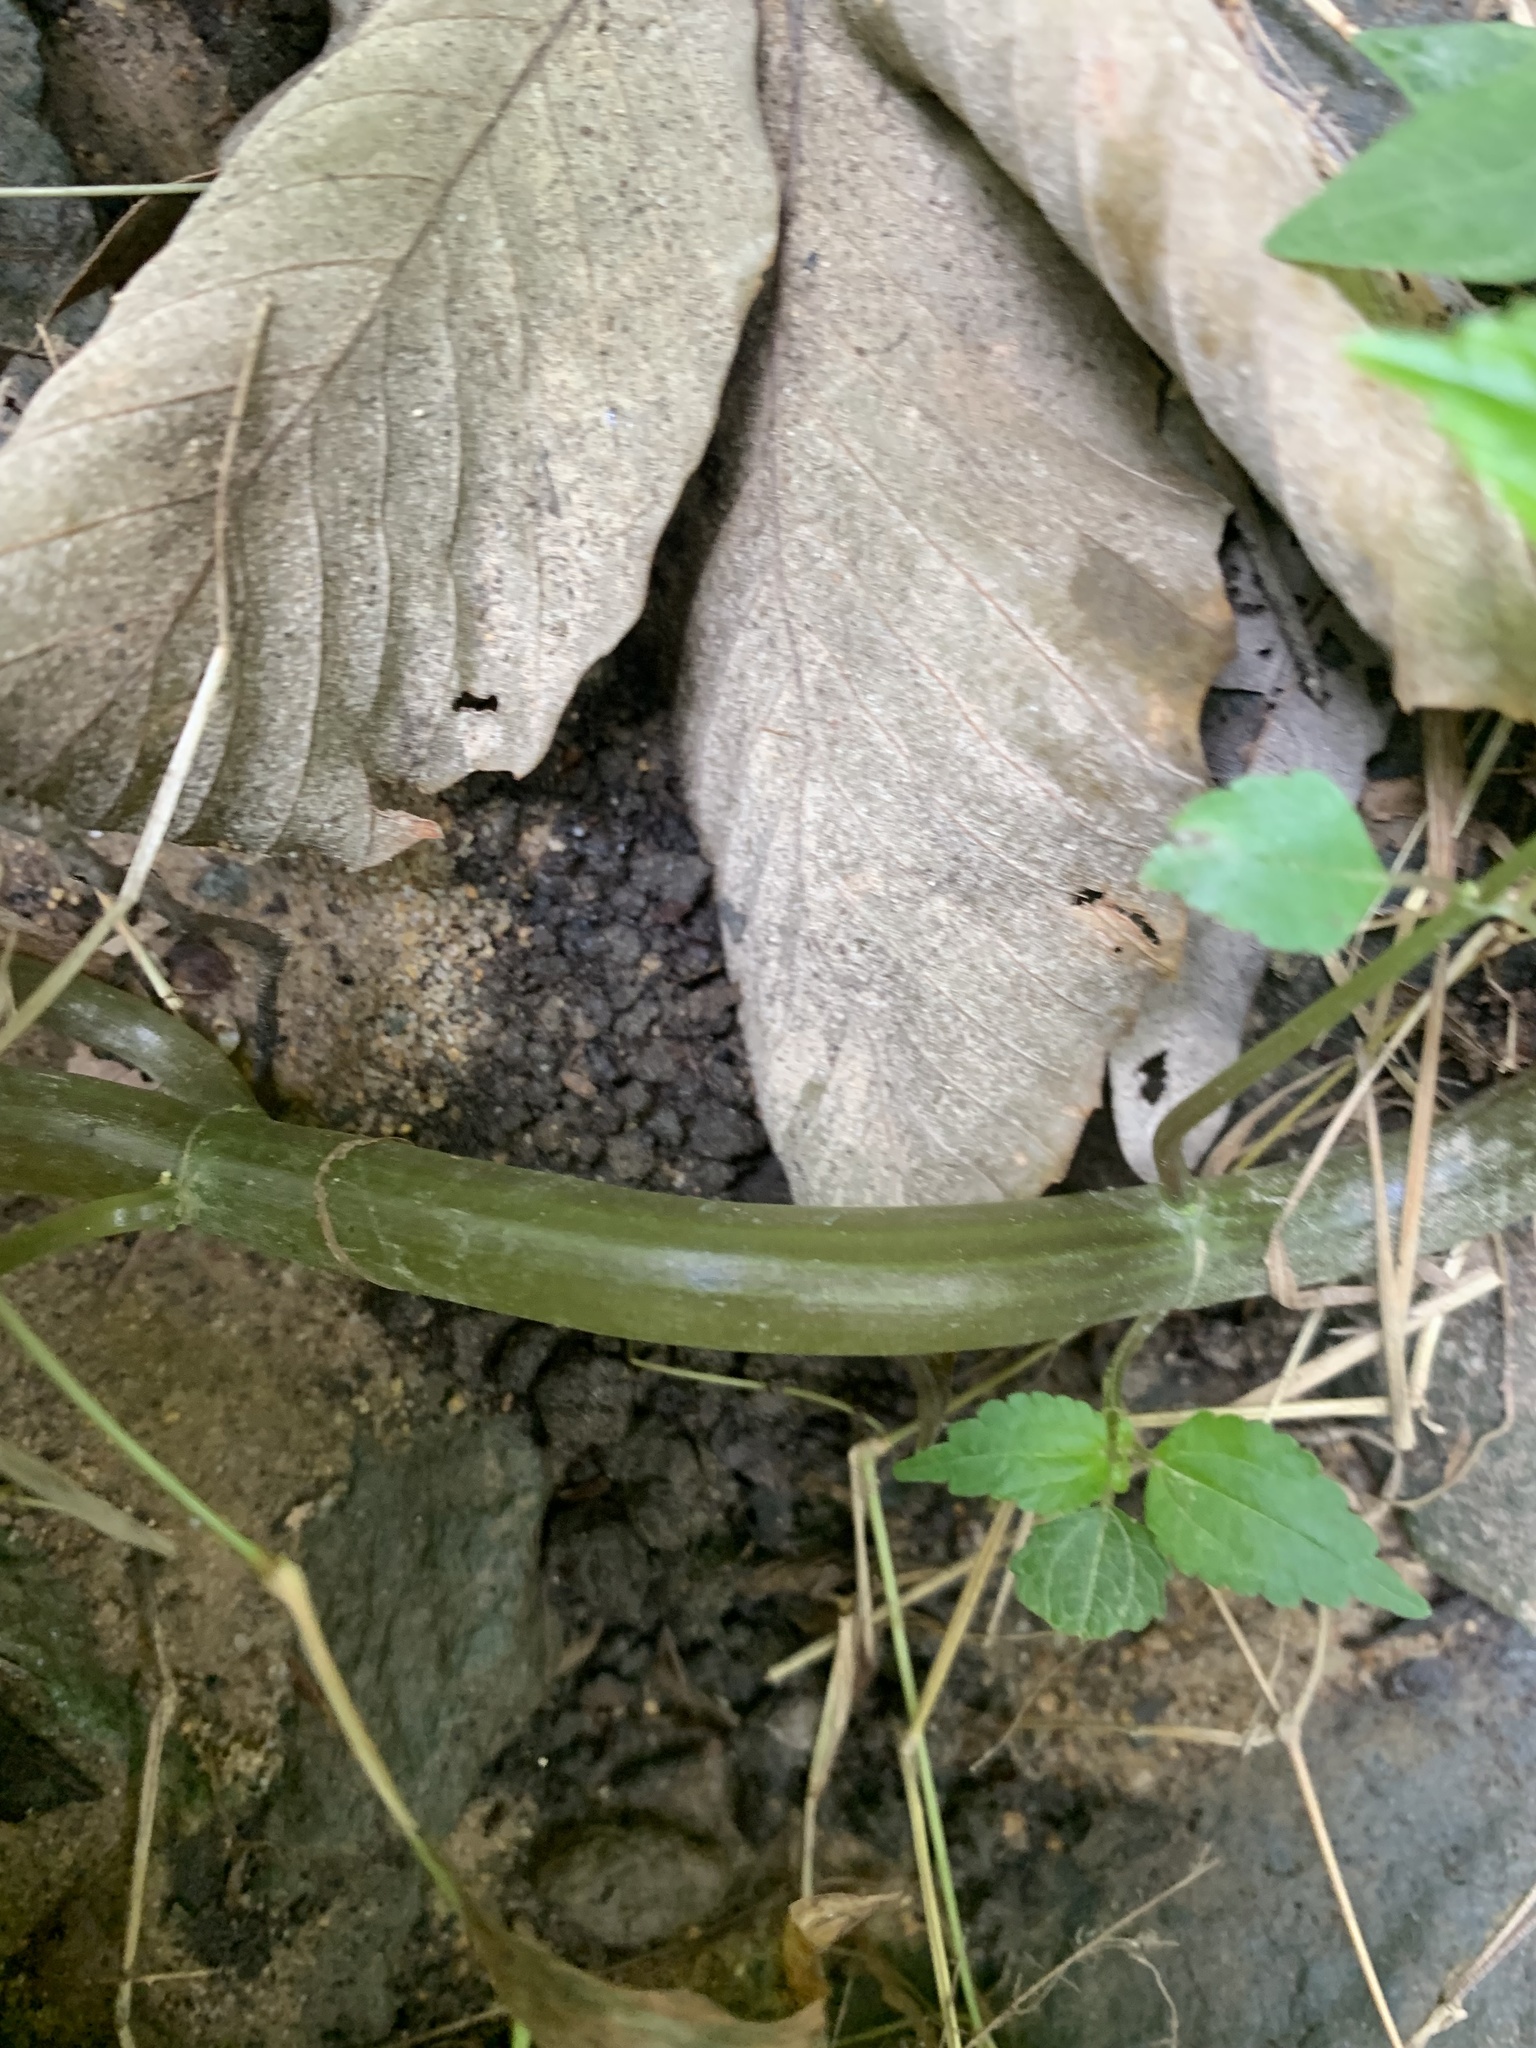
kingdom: Plantae
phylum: Tracheophyta
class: Magnoliopsida
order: Rosales
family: Urticaceae
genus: Pilea
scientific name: Pilea pumila
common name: Clearweed
